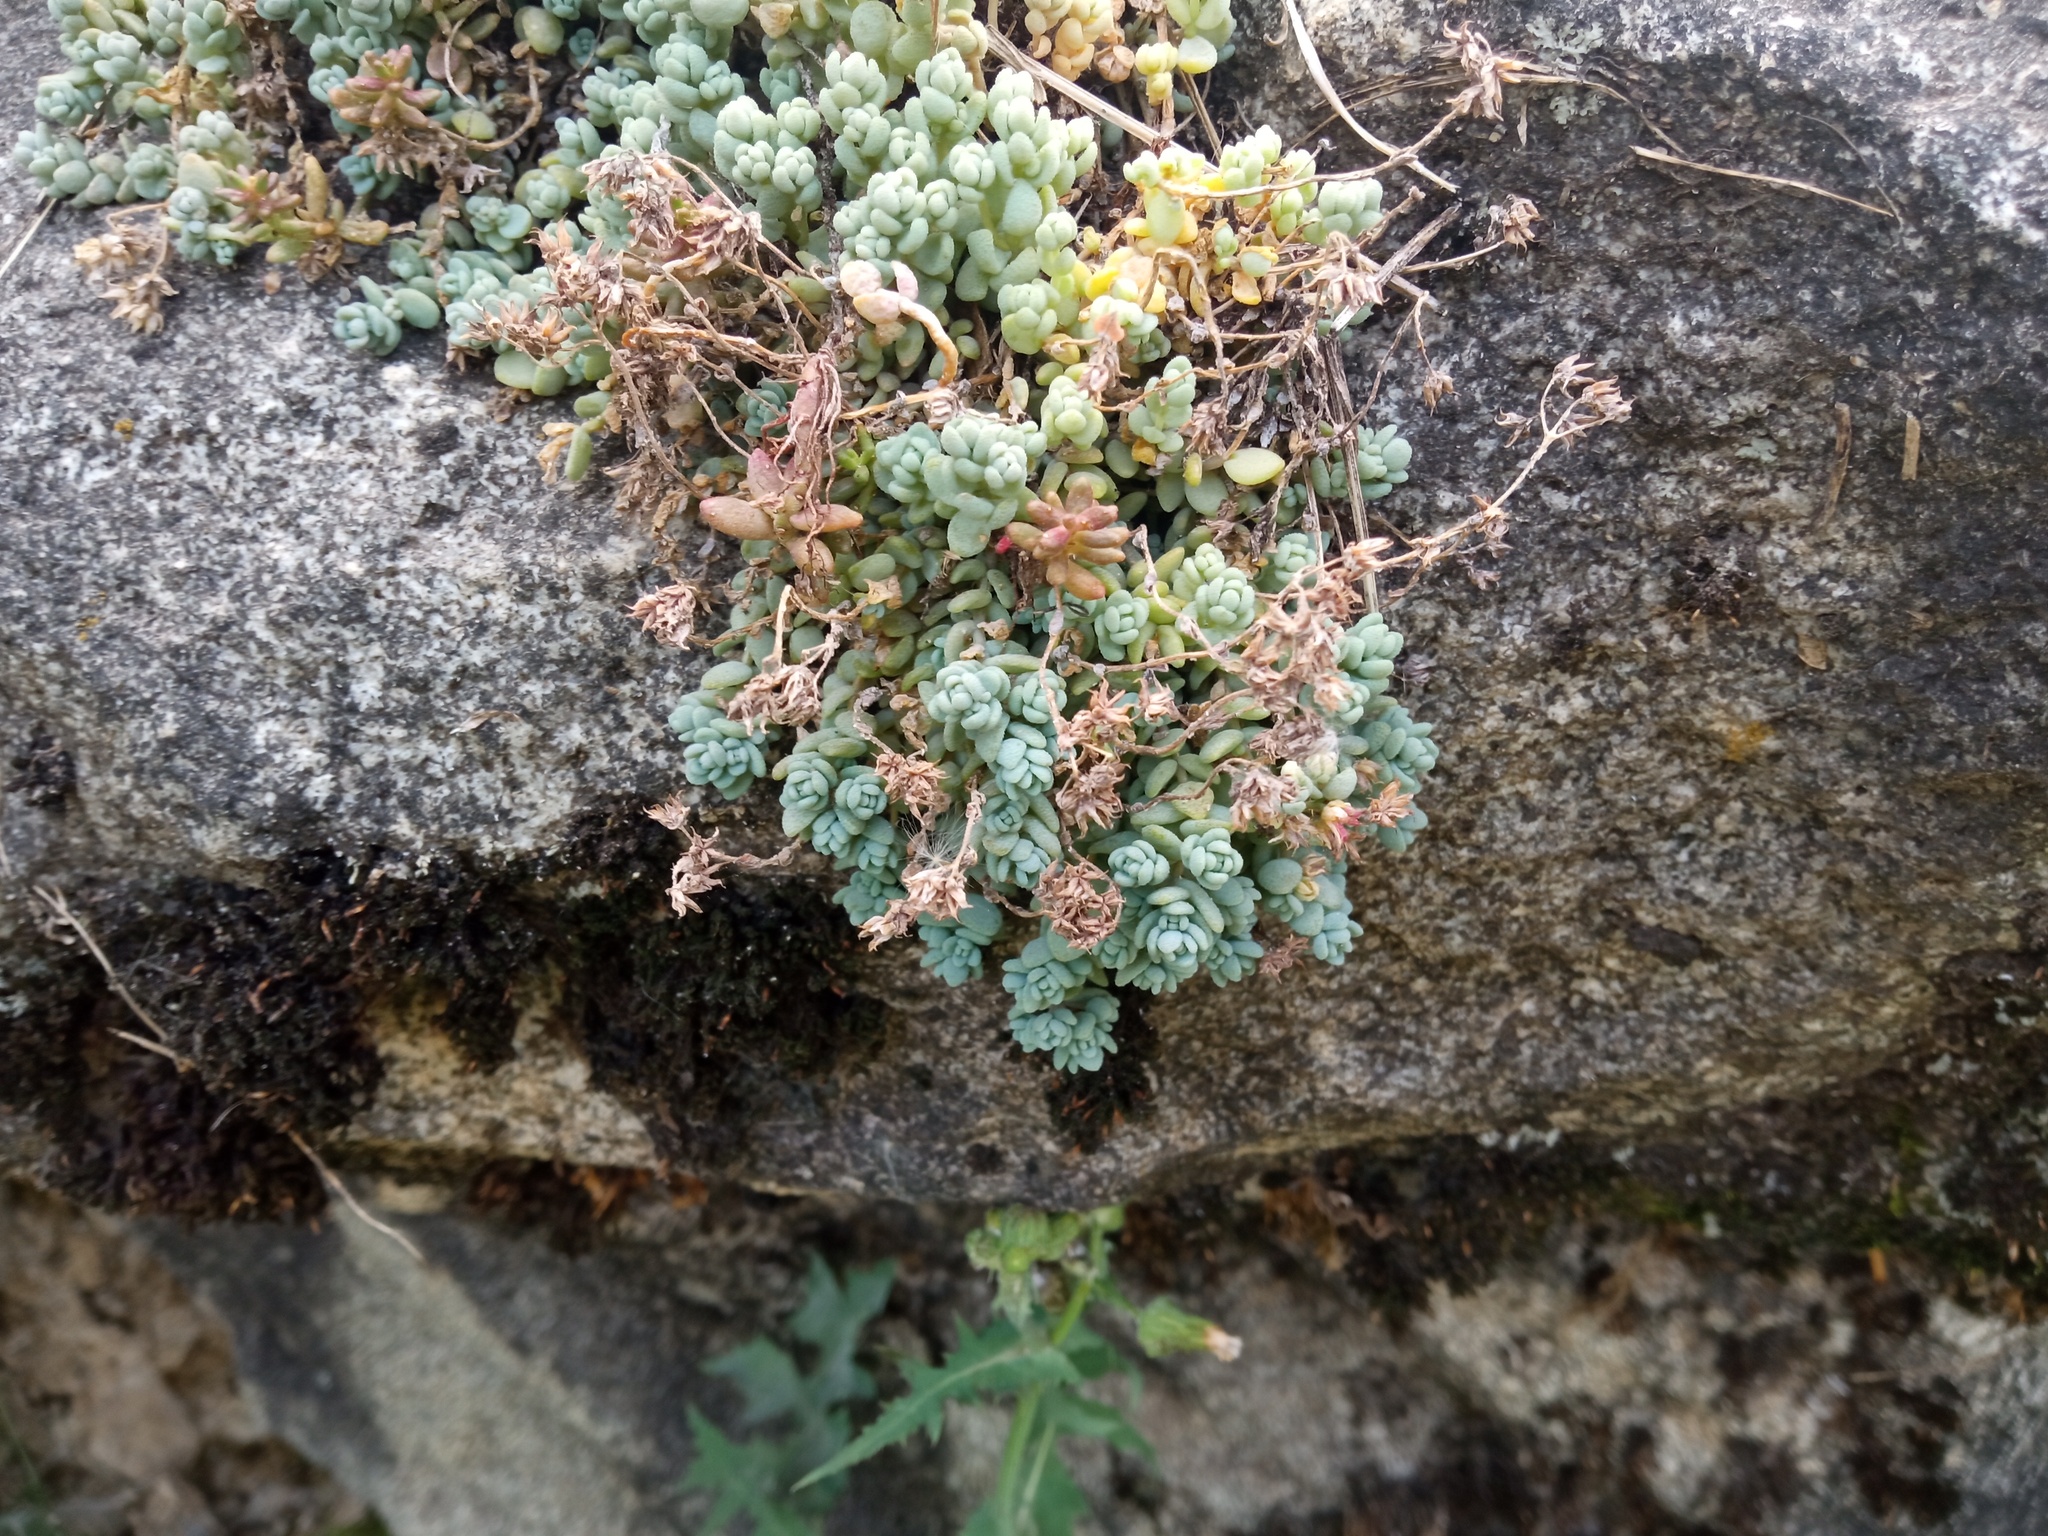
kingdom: Plantae
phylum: Tracheophyta
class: Magnoliopsida
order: Saxifragales
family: Crassulaceae
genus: Sedum
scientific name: Sedum dasyphyllum
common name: Thick-leaf stonecrop
